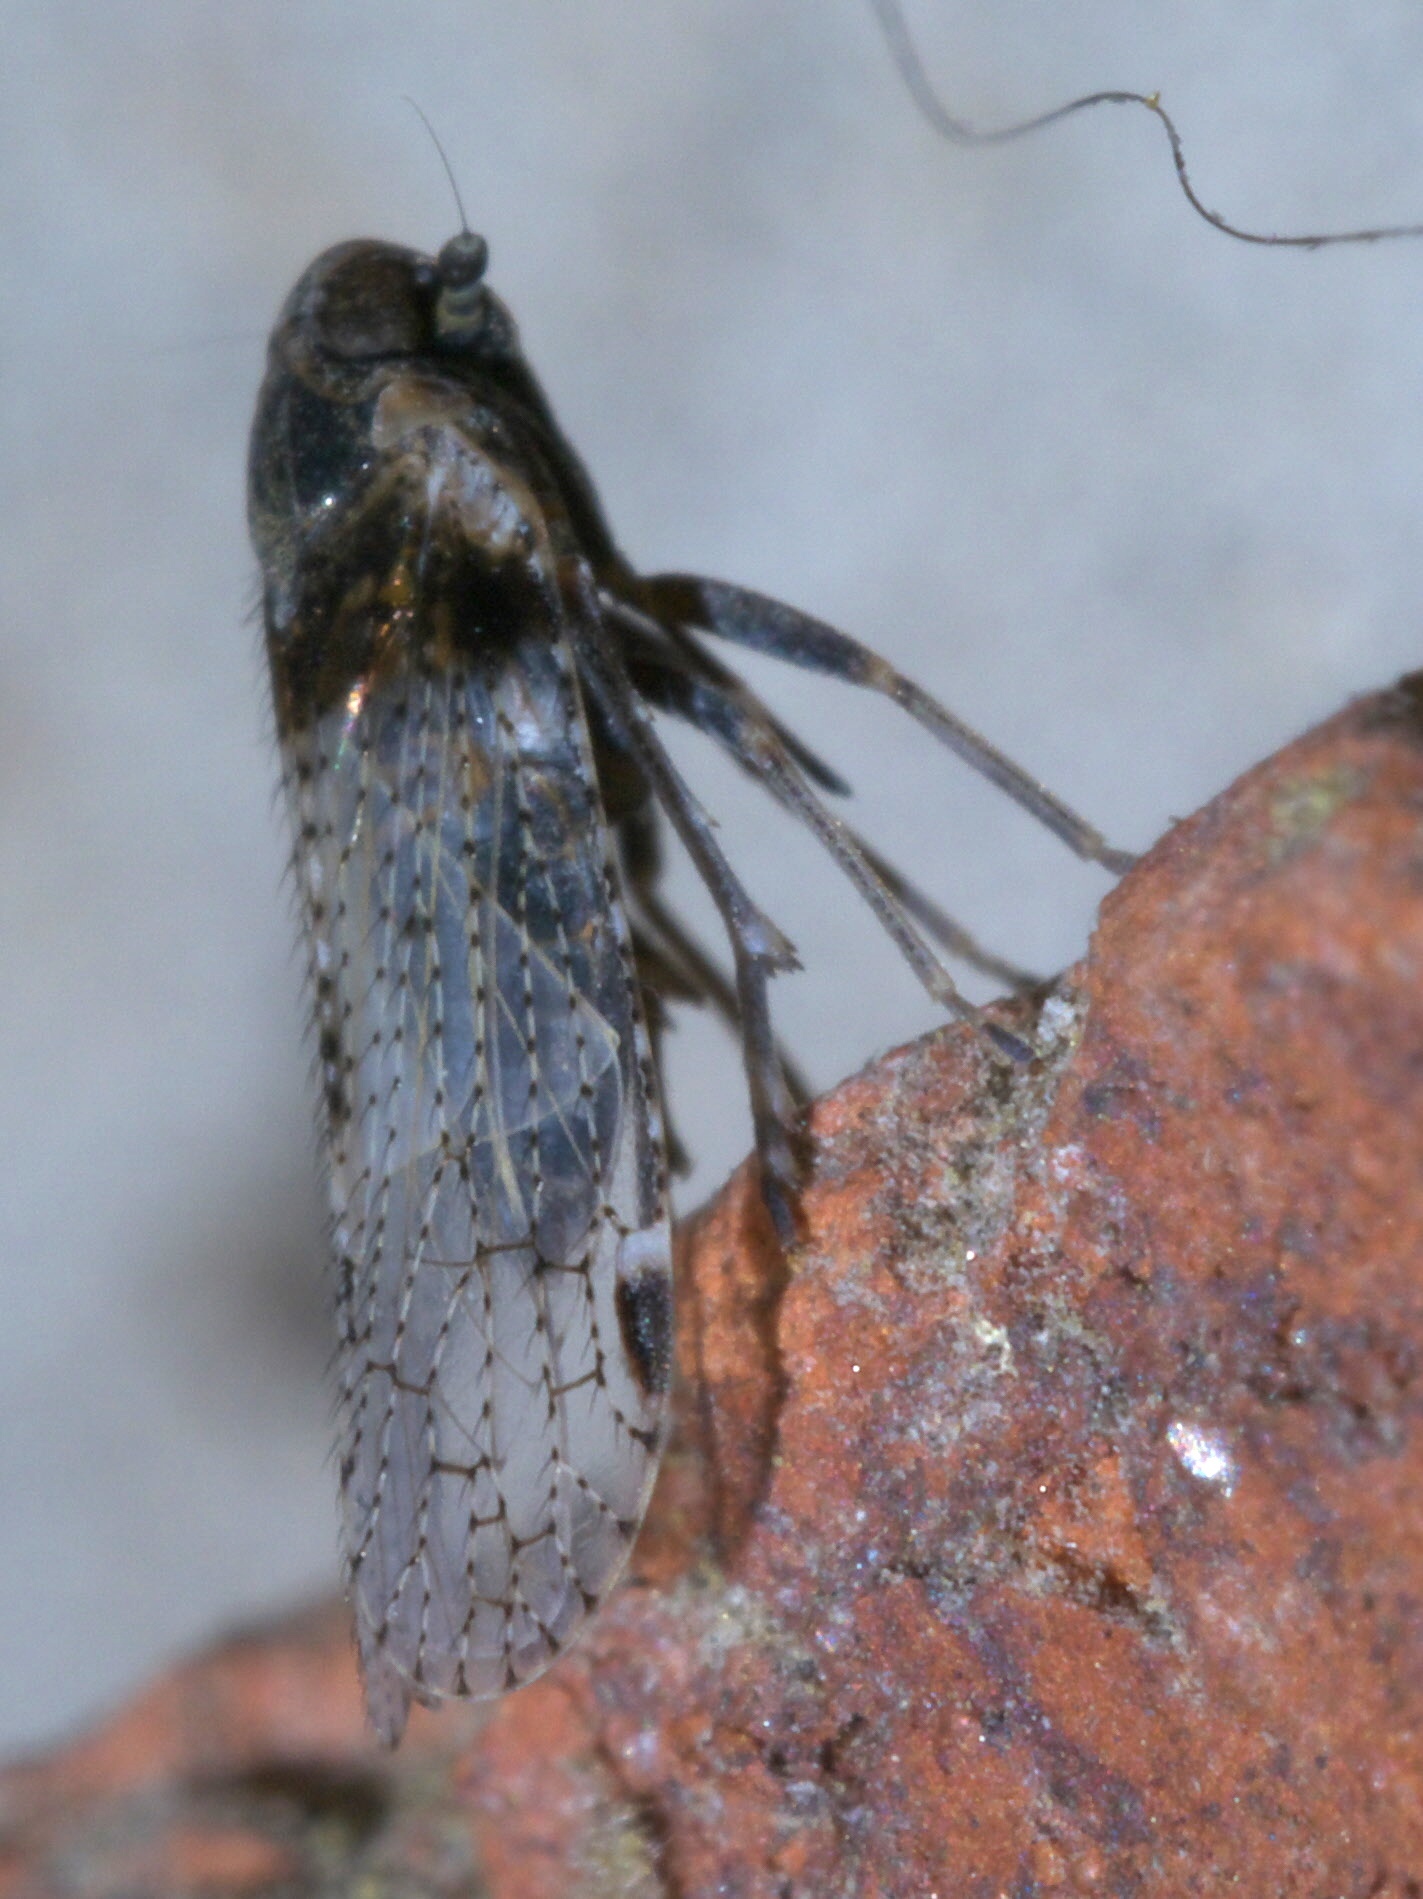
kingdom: Animalia
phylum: Arthropoda
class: Insecta
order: Hemiptera
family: Cixiidae
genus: Cixius
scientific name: Cixius stigmatus
